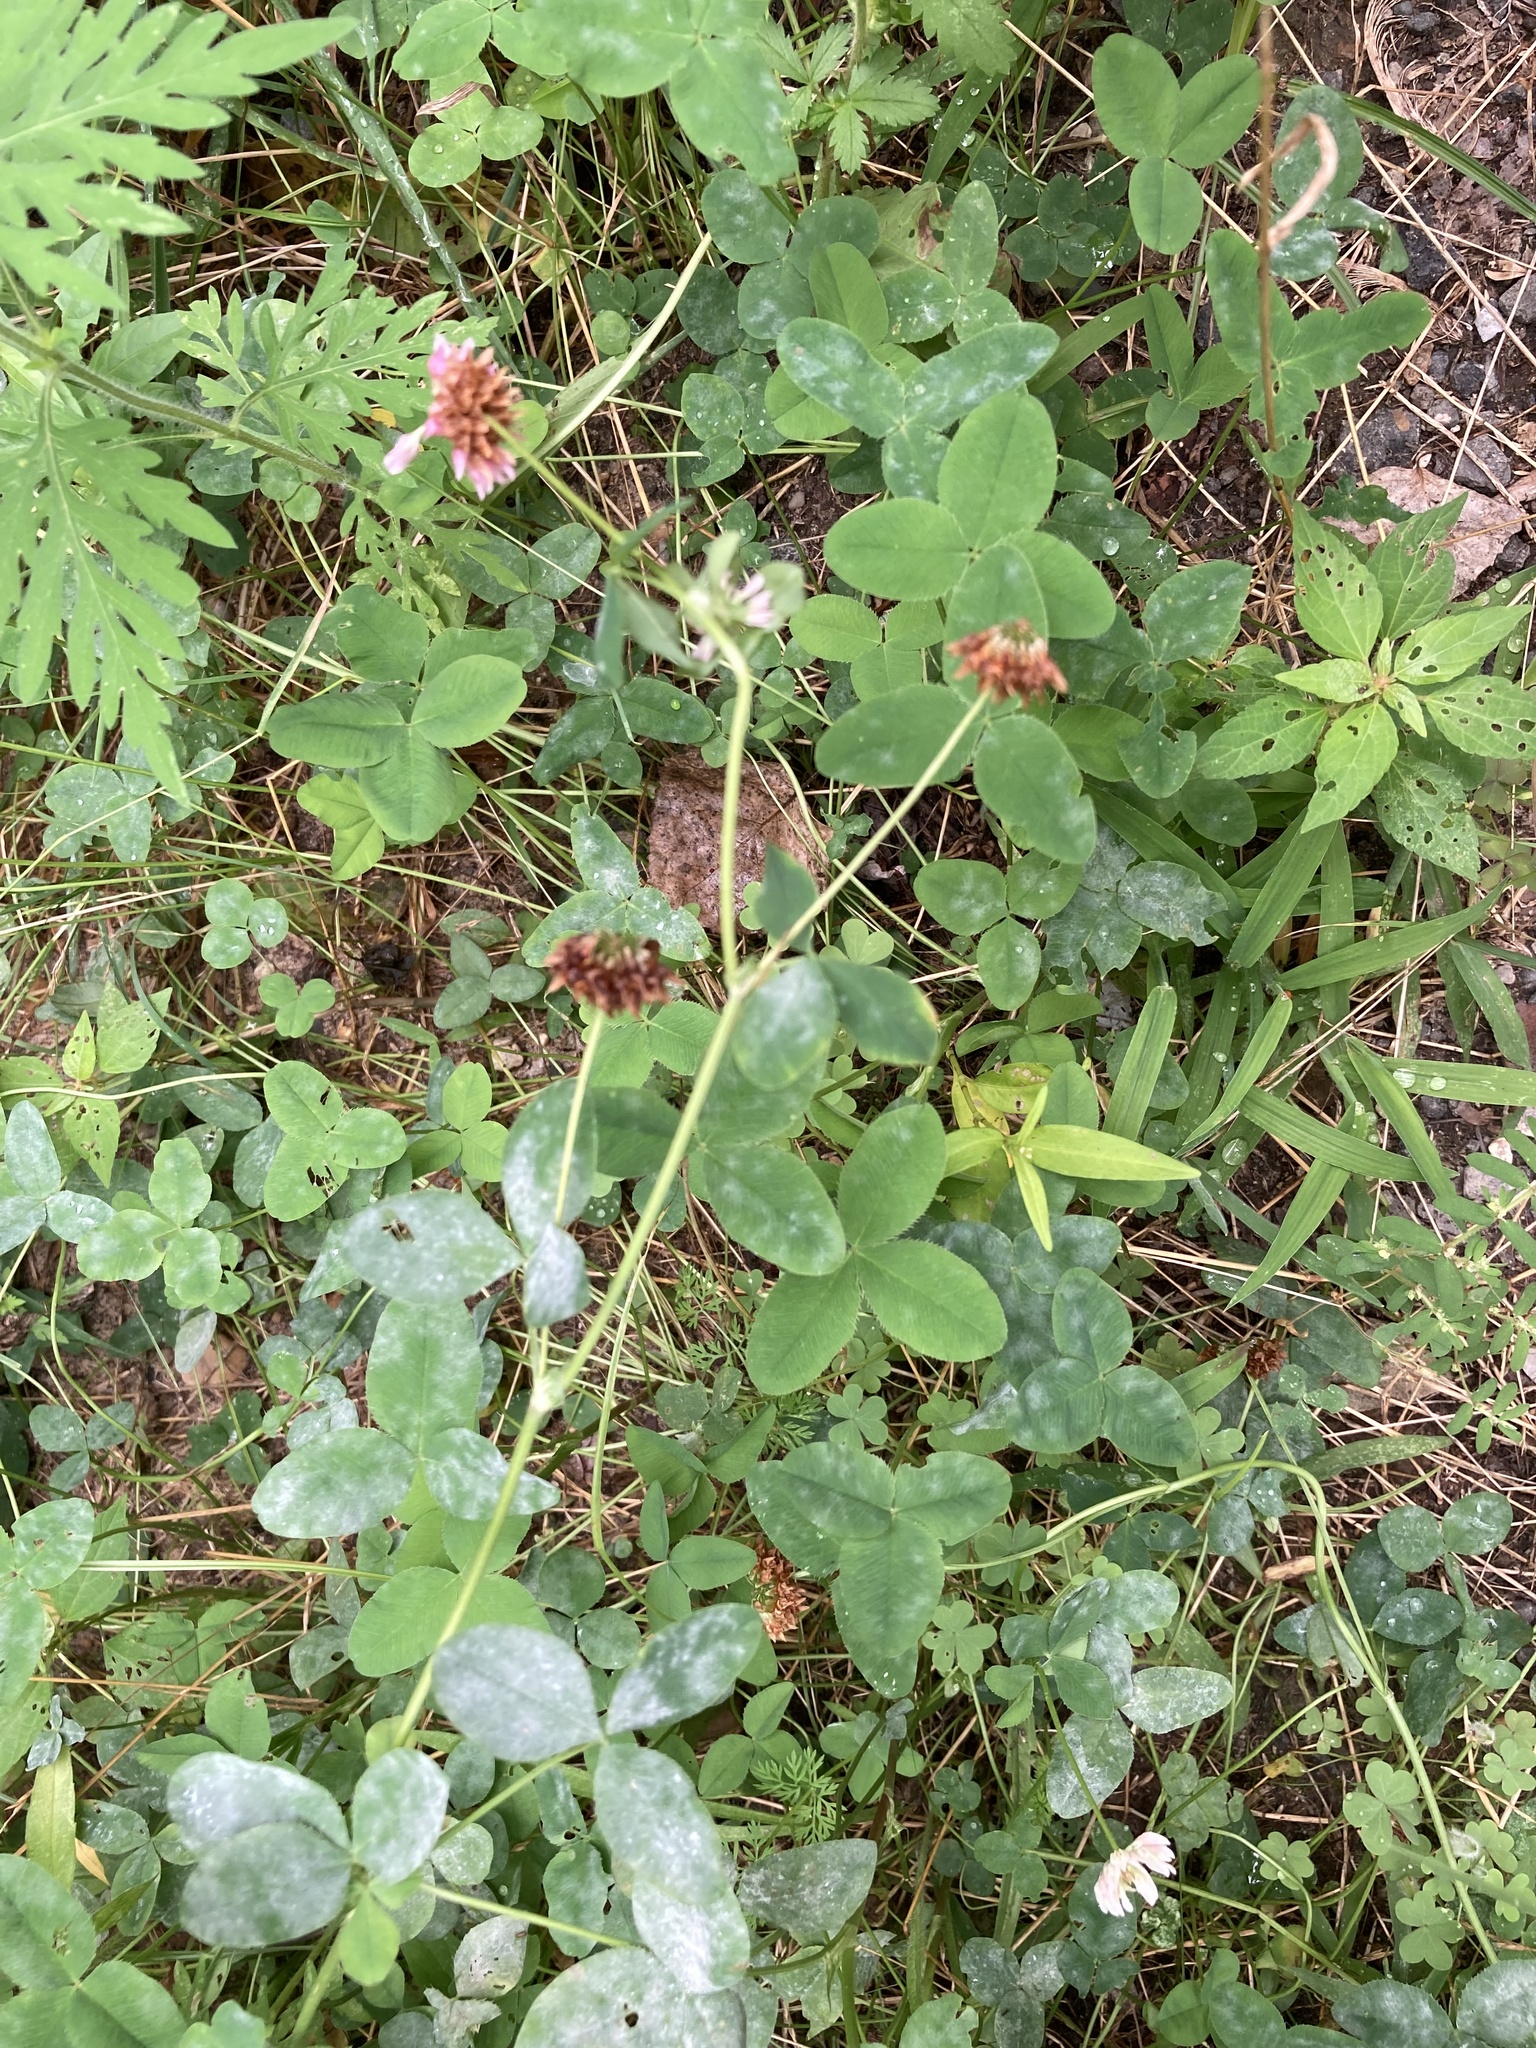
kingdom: Plantae
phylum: Tracheophyta
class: Magnoliopsida
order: Fabales
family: Fabaceae
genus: Trifolium
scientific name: Trifolium hybridum
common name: Alsike clover
